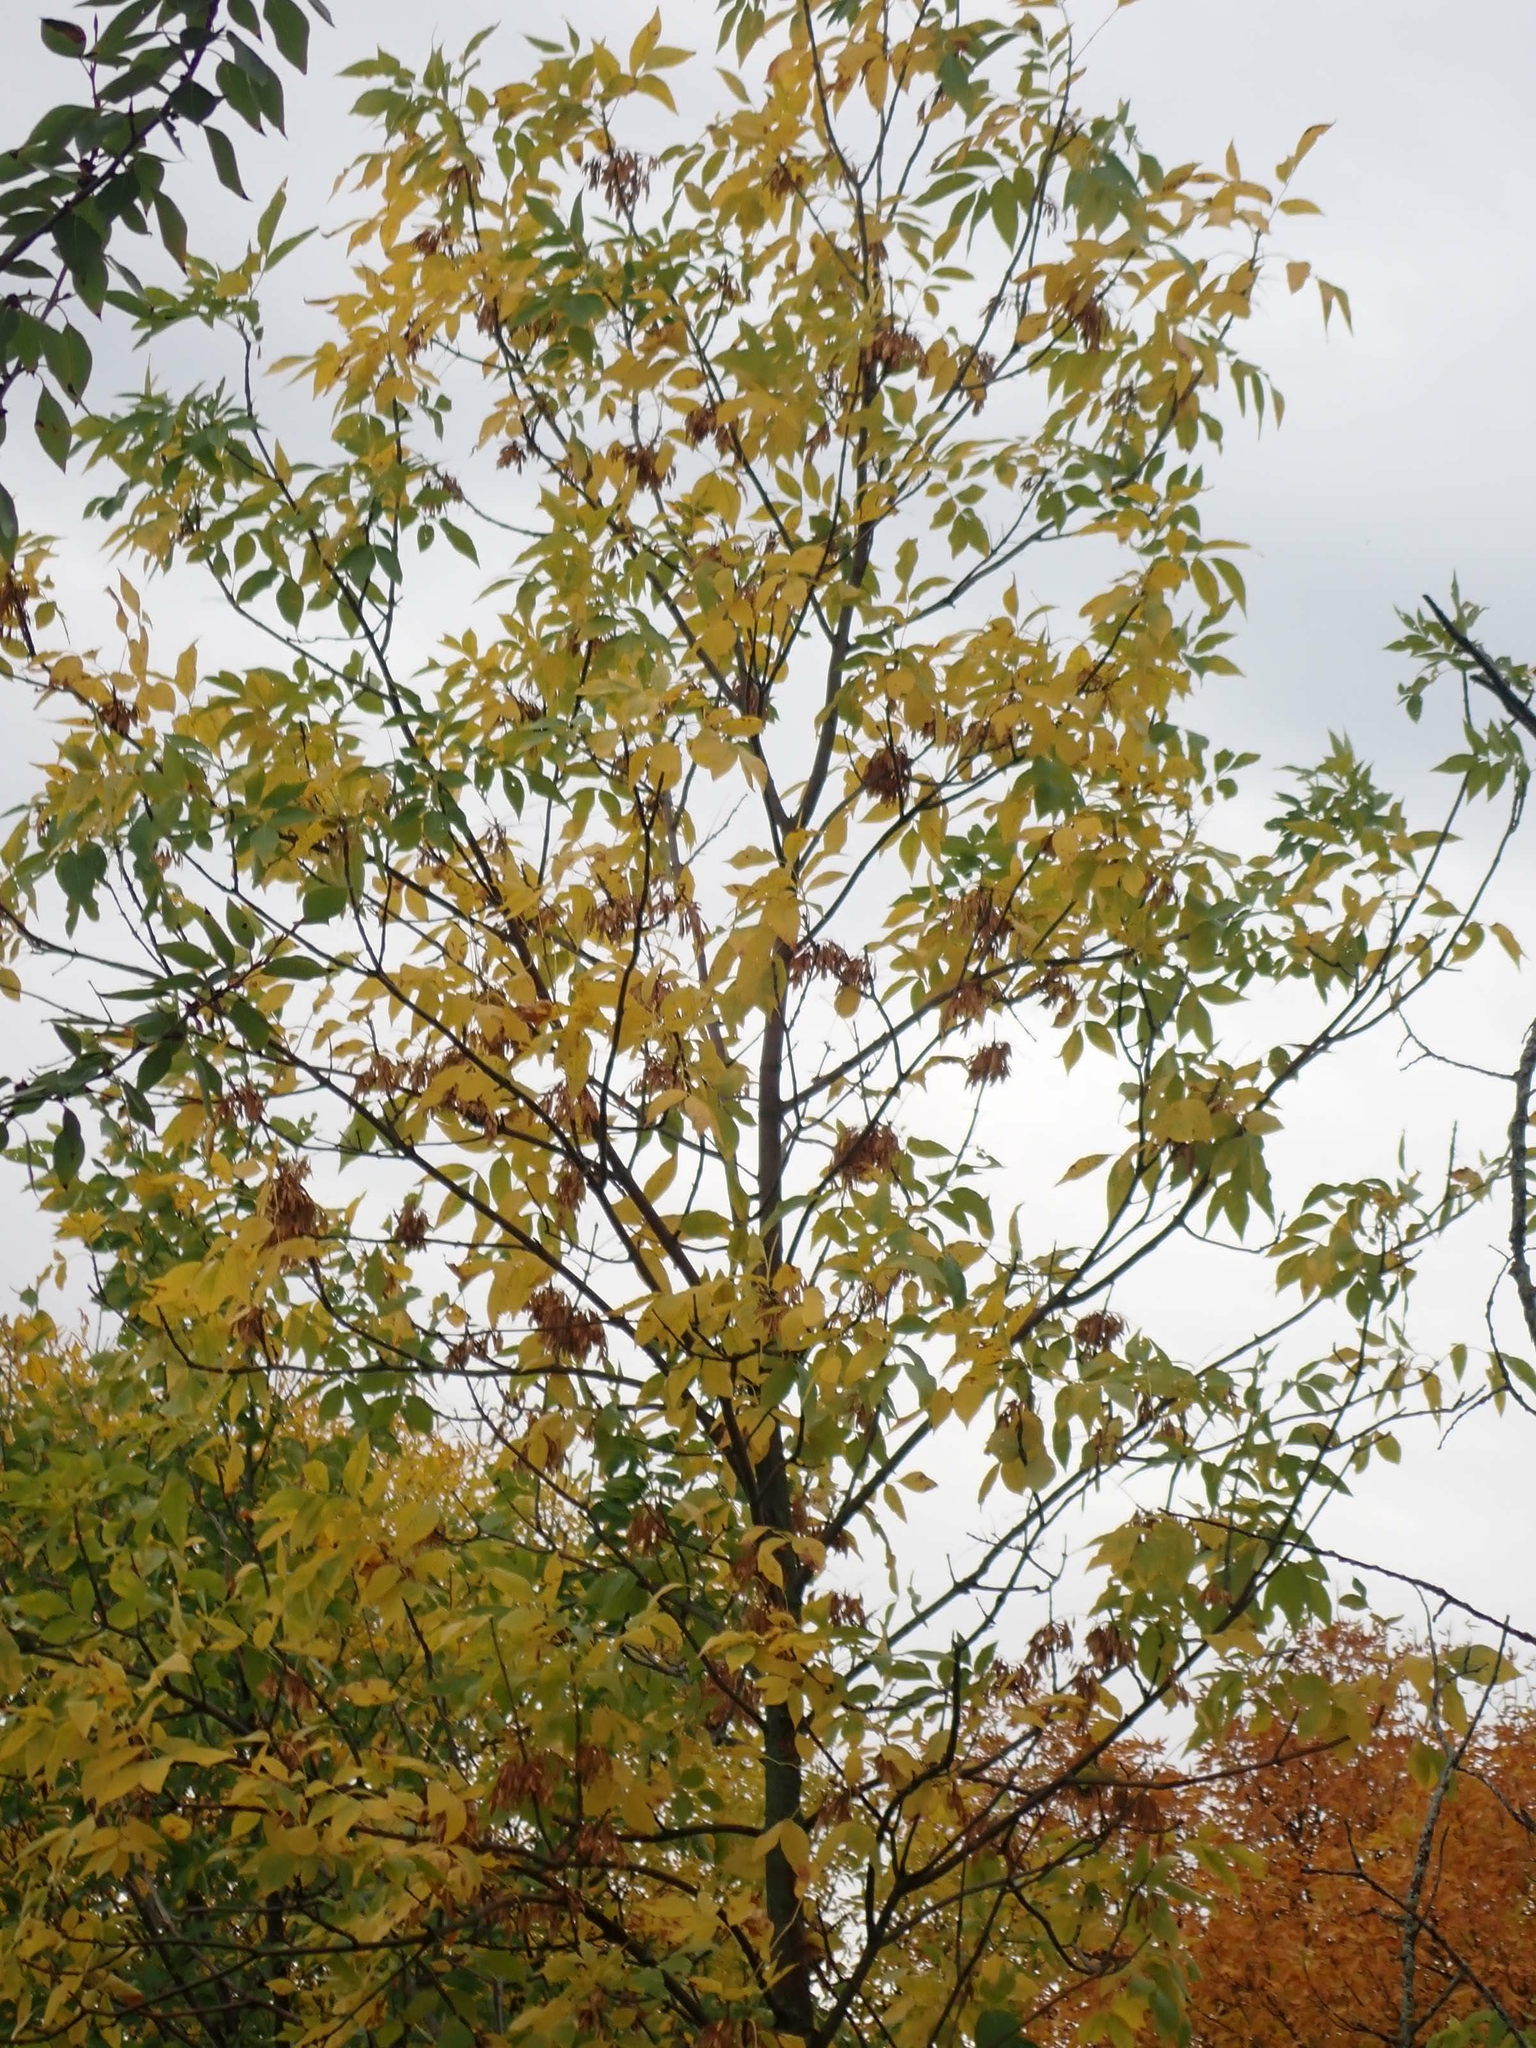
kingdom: Animalia
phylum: Arthropoda
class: Arachnida
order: Trombidiformes
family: Eriophyidae
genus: Aceria
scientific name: Aceria fraxiniflora
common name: Ash flower gall mite
